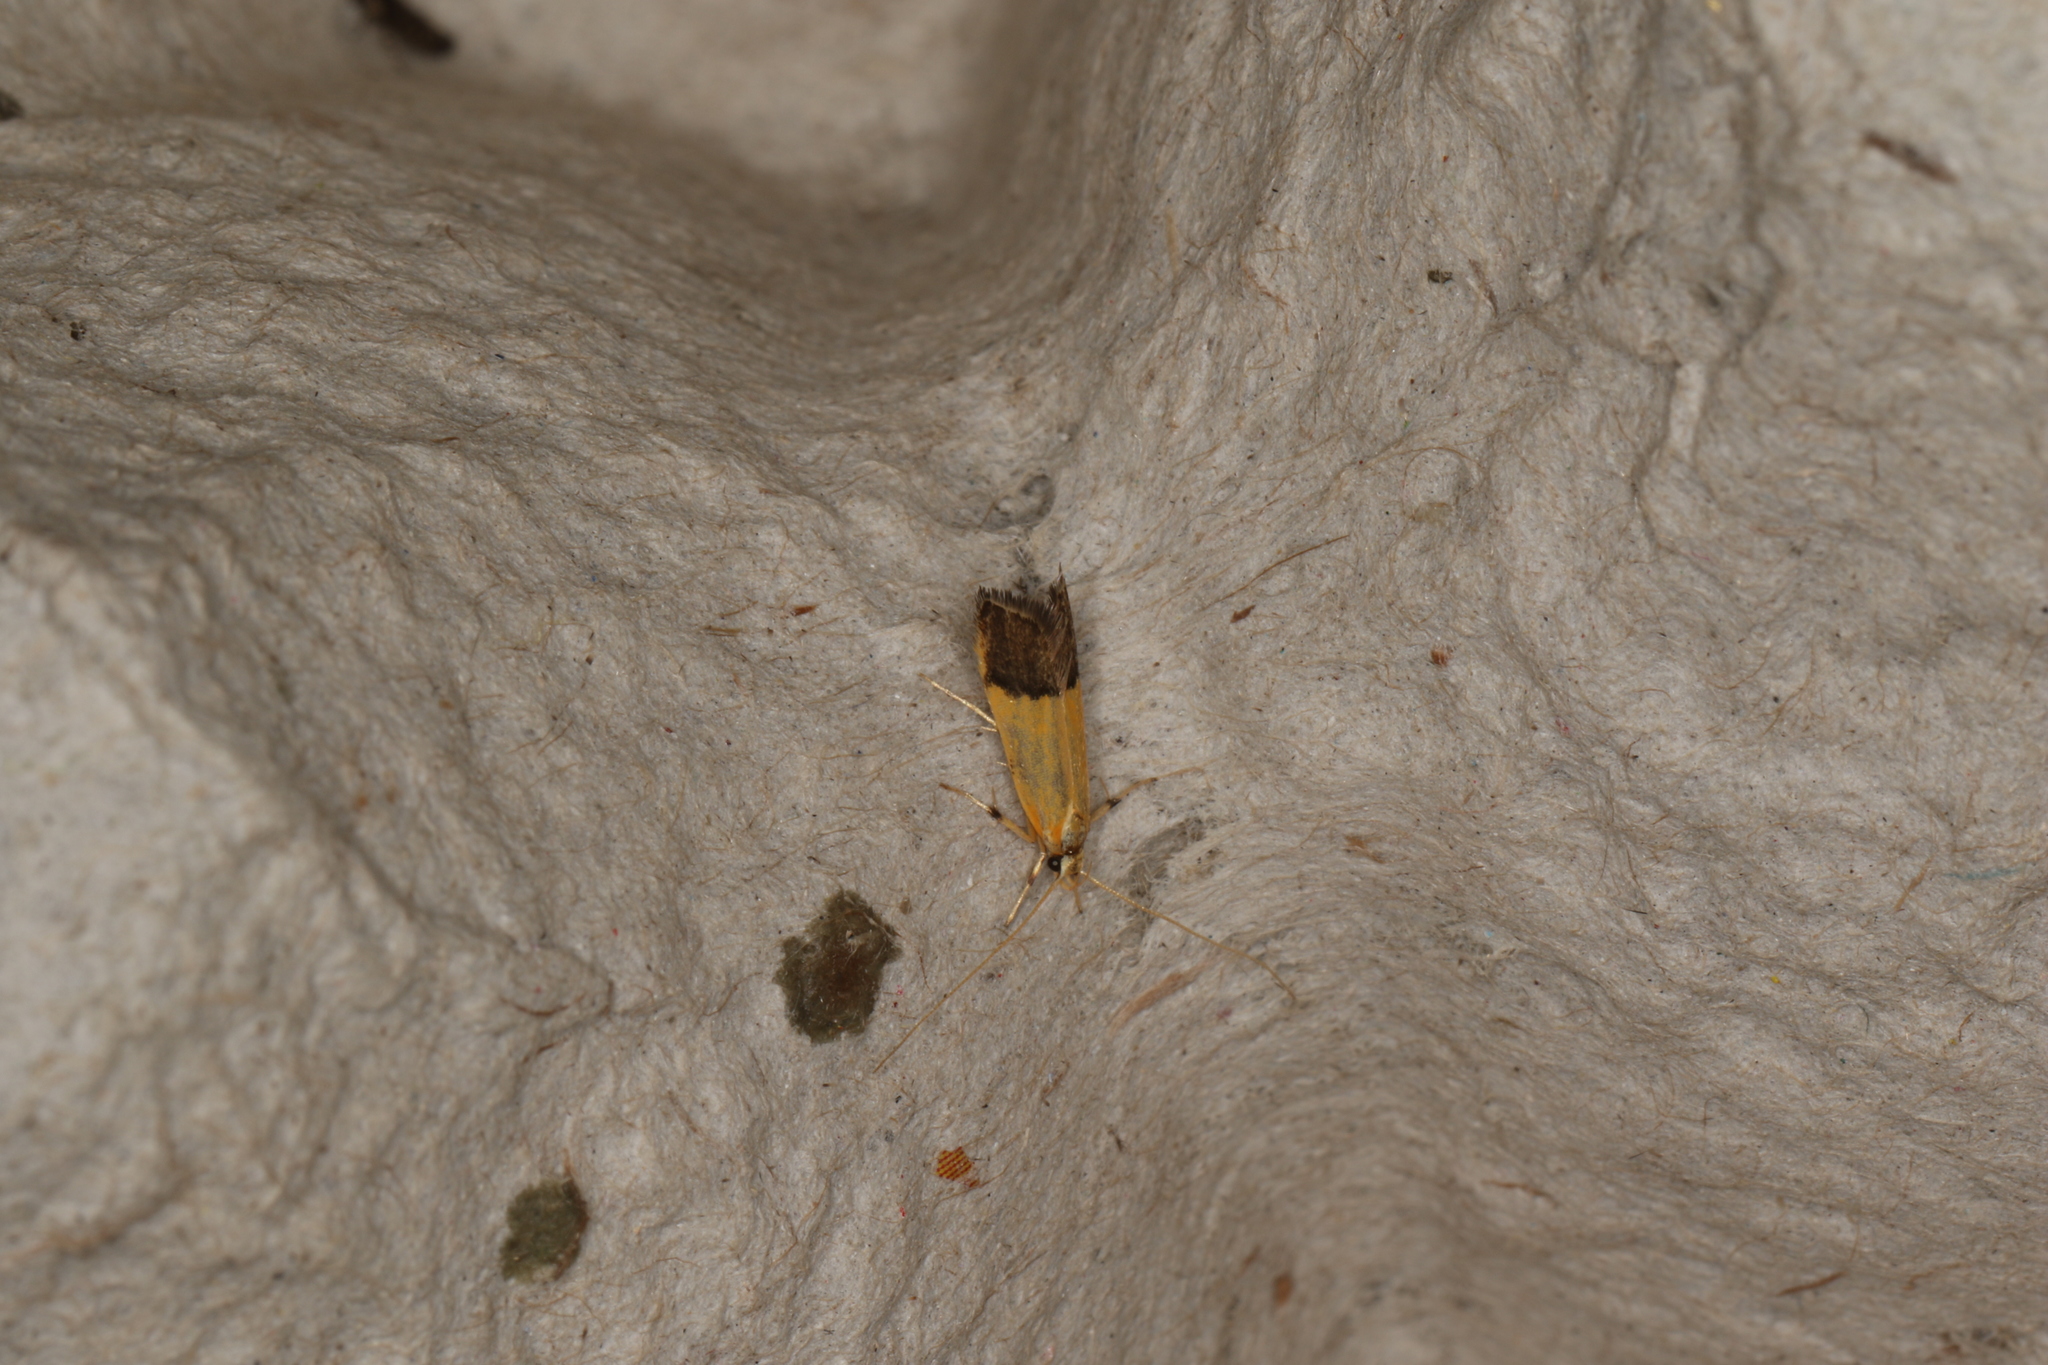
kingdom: Animalia
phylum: Arthropoda
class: Insecta
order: Lepidoptera
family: Lecithoceridae
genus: Crocanthes
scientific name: Crocanthes micradelpha
